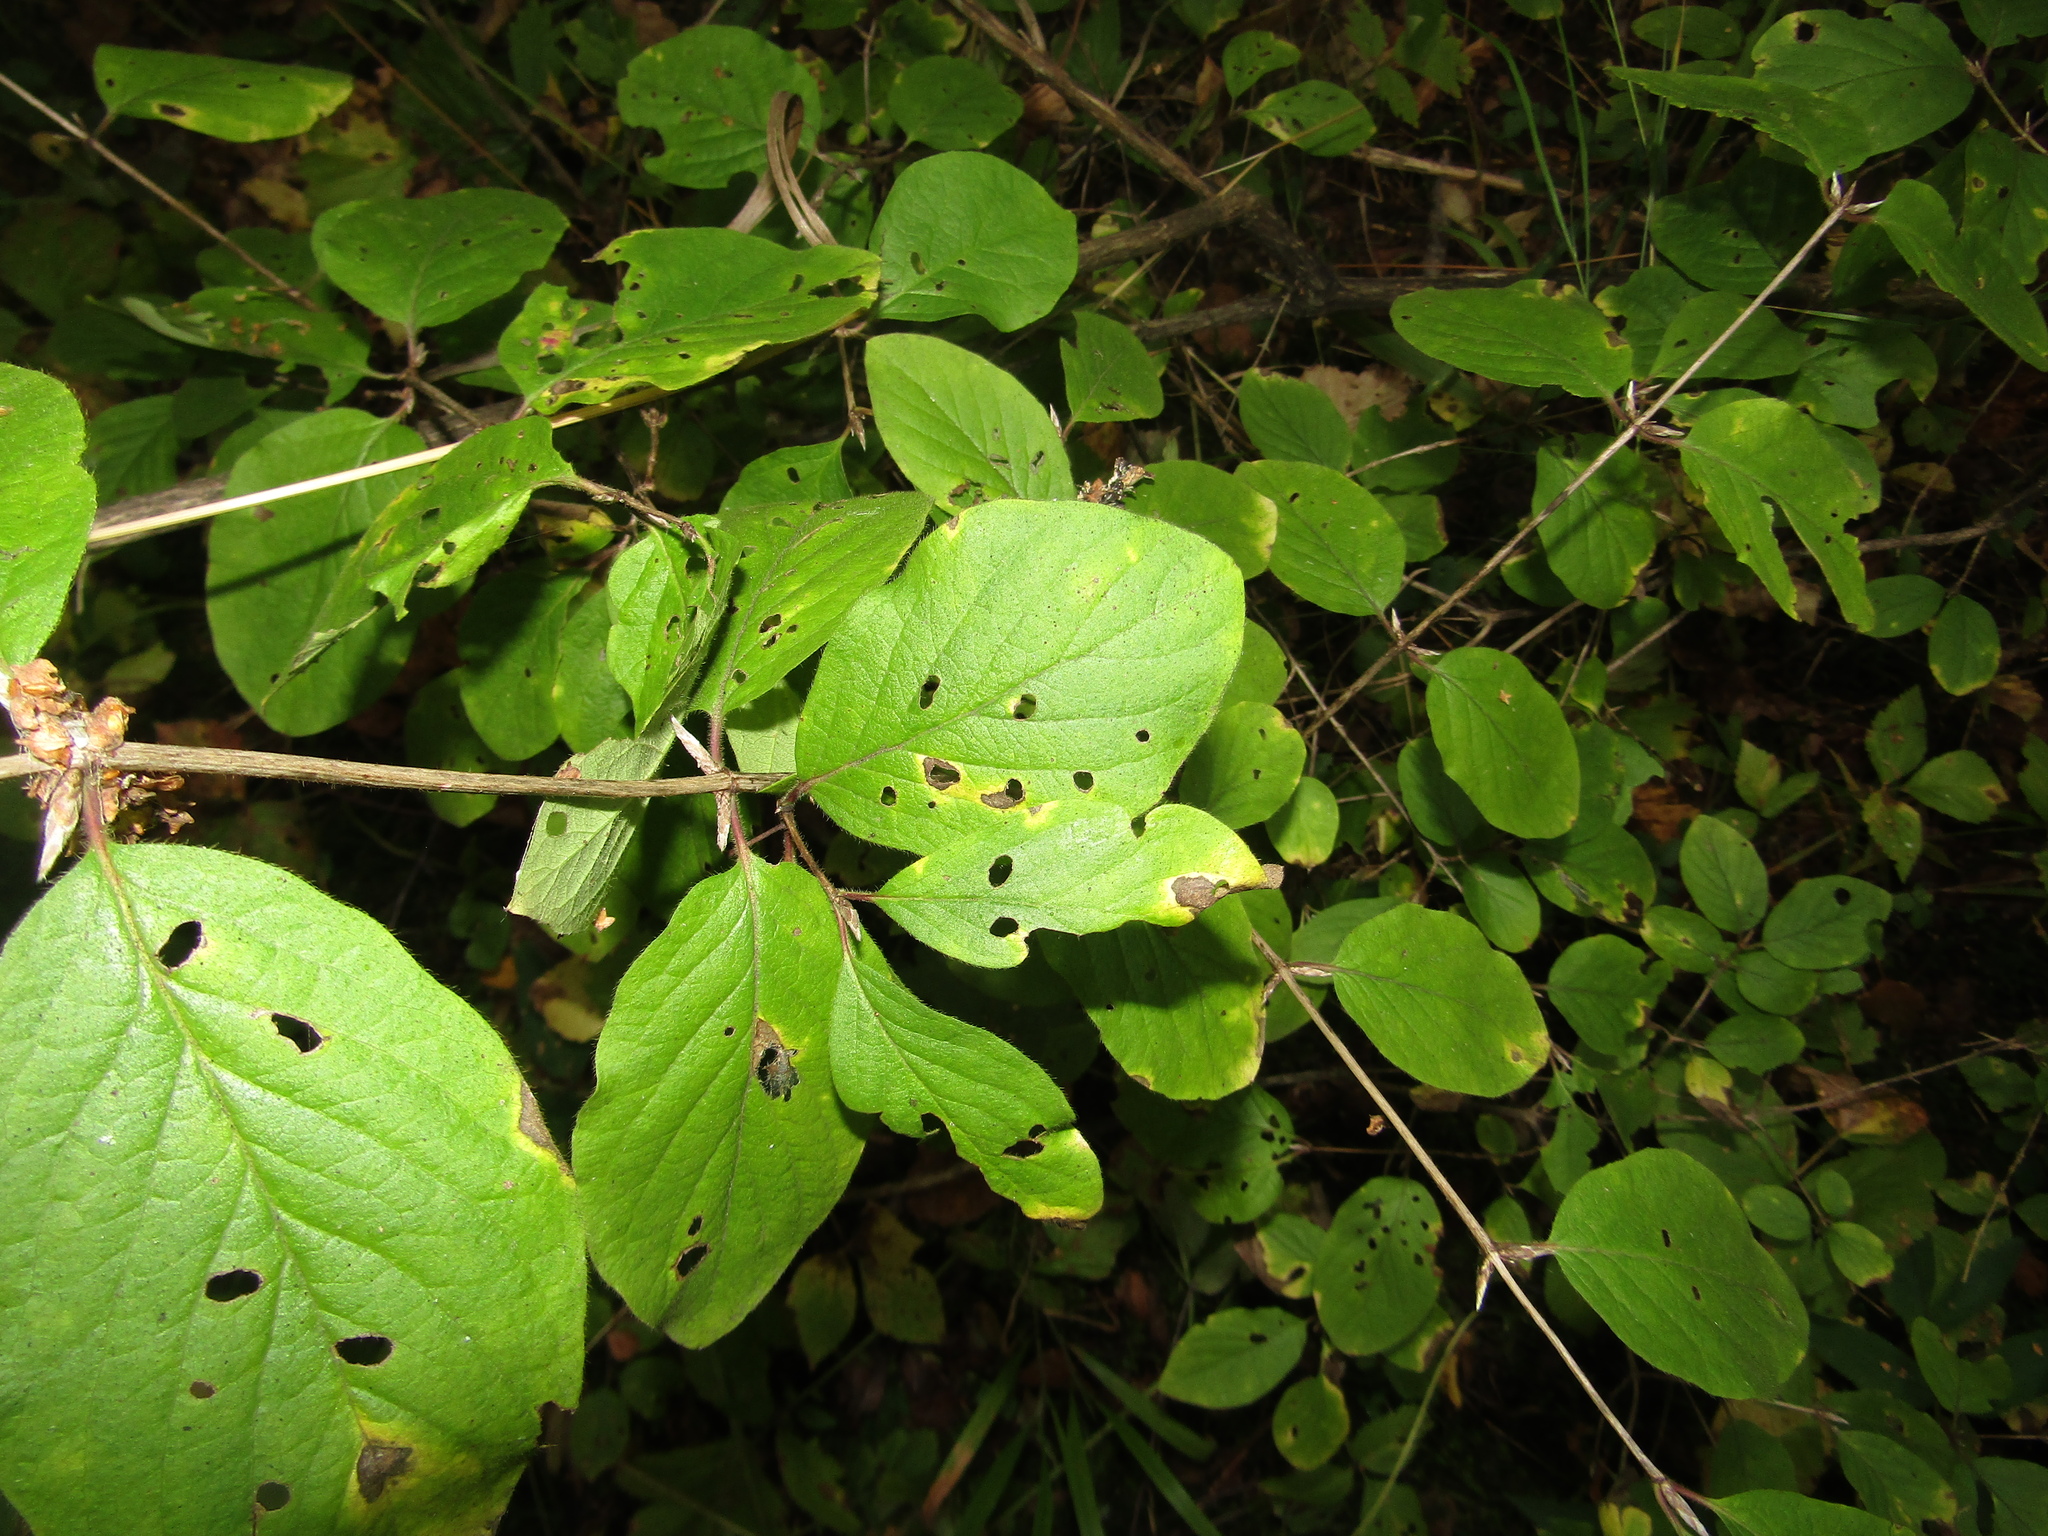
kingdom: Plantae
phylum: Tracheophyta
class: Magnoliopsida
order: Dipsacales
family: Caprifoliaceae
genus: Lonicera
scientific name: Lonicera xylosteum
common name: Fly honeysuckle
